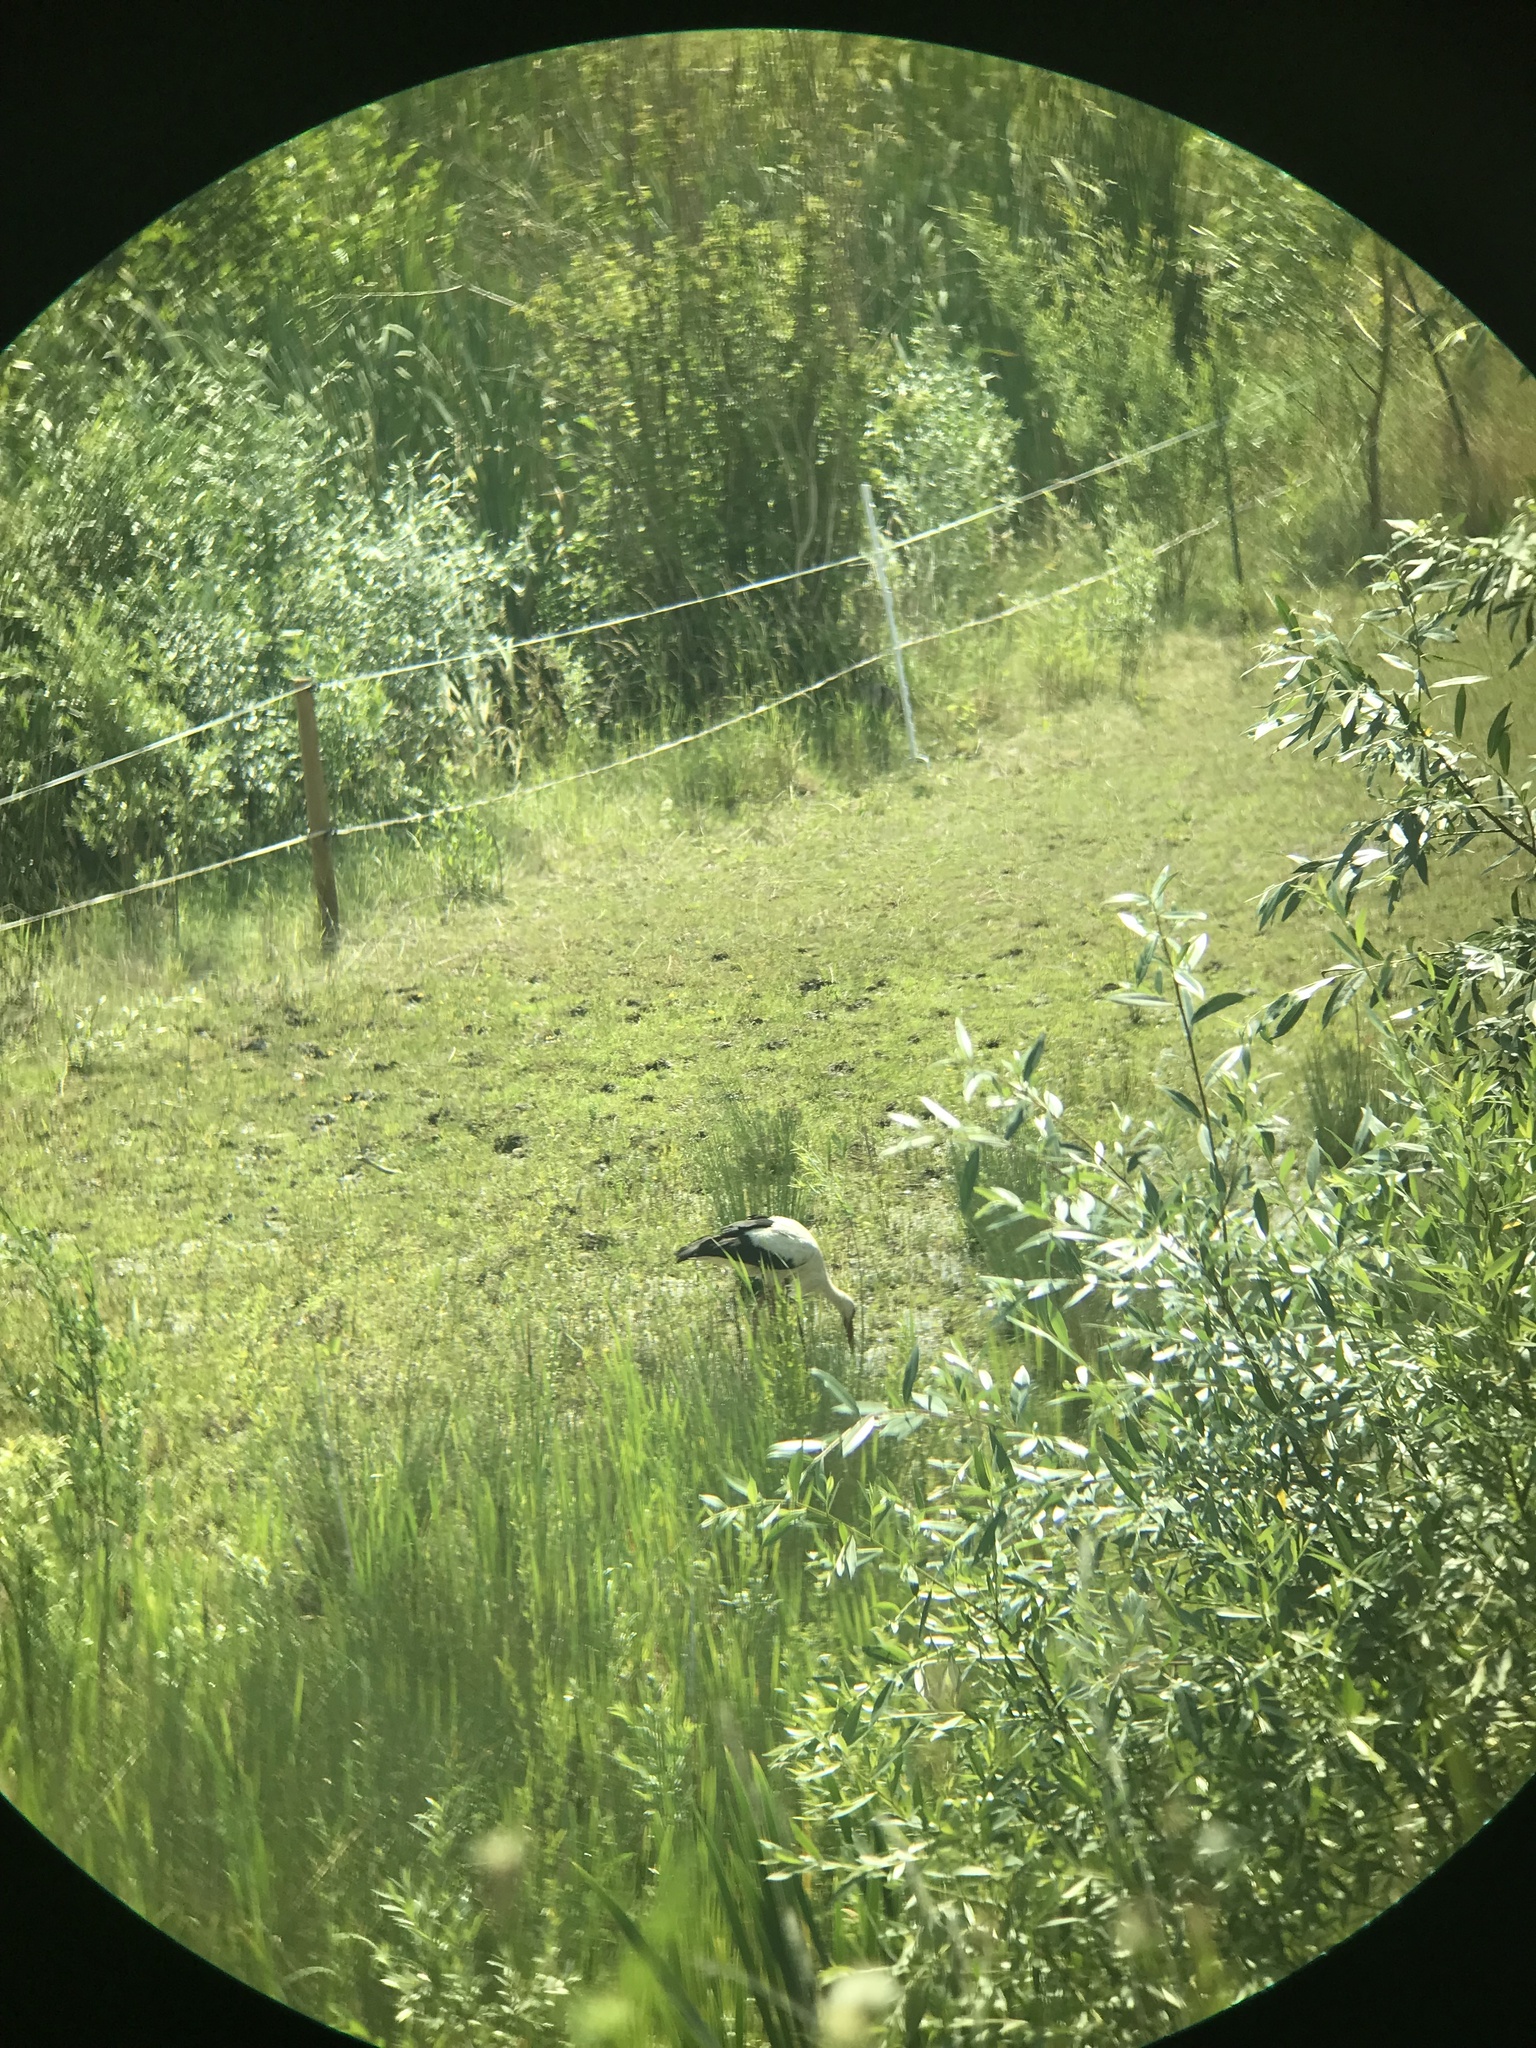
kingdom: Animalia
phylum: Chordata
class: Aves
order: Ciconiiformes
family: Ciconiidae
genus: Ciconia
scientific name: Ciconia ciconia
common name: White stork
